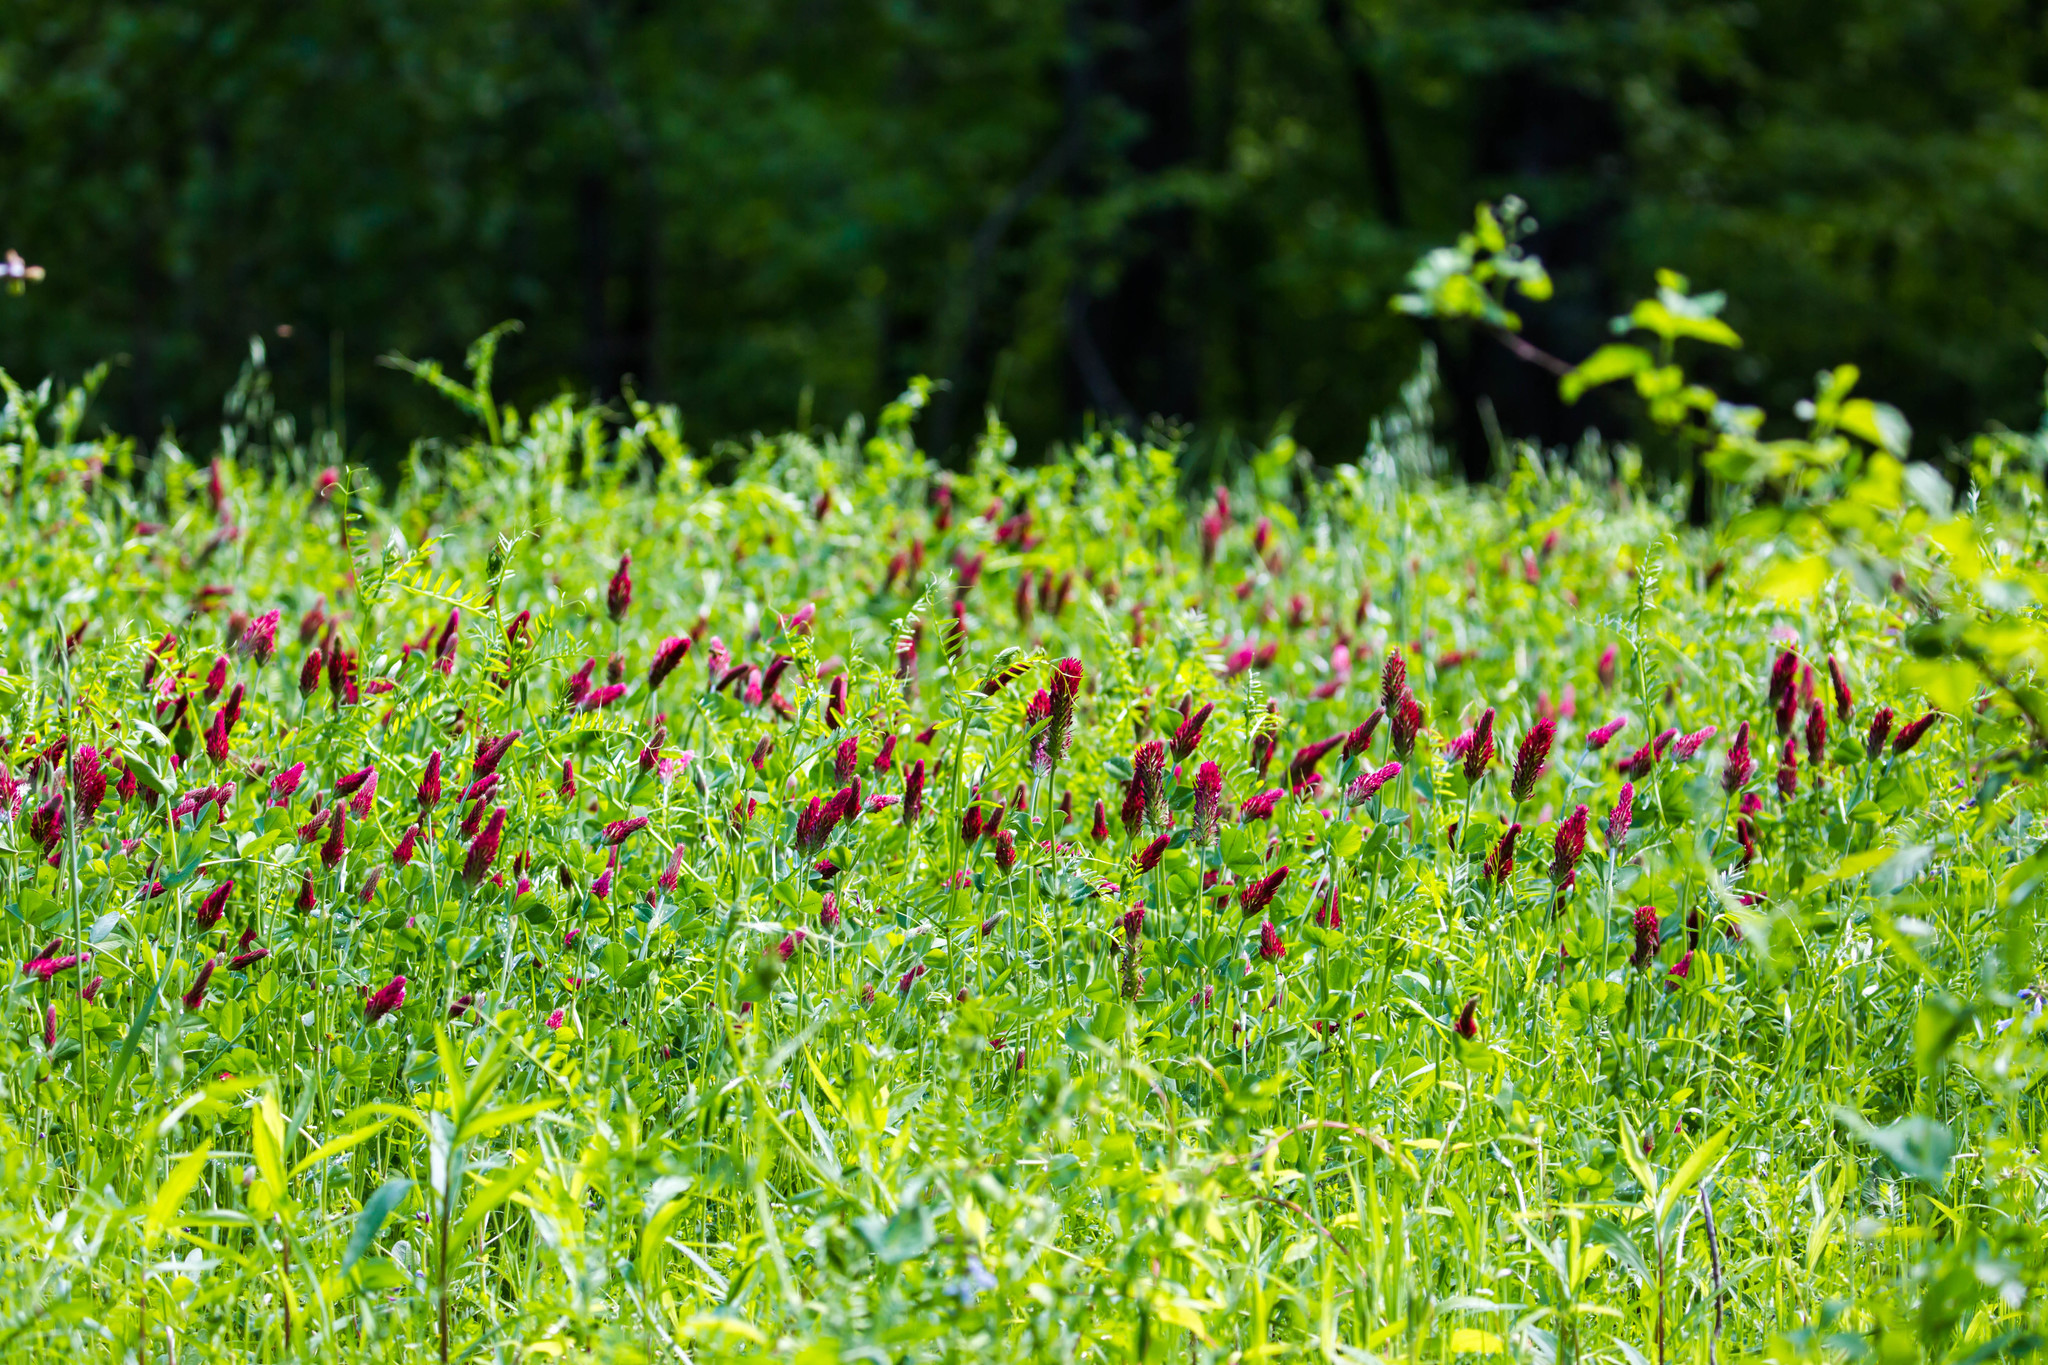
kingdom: Plantae
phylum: Tracheophyta
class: Magnoliopsida
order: Fabales
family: Fabaceae
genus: Trifolium
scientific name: Trifolium incarnatum
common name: Crimson clover
